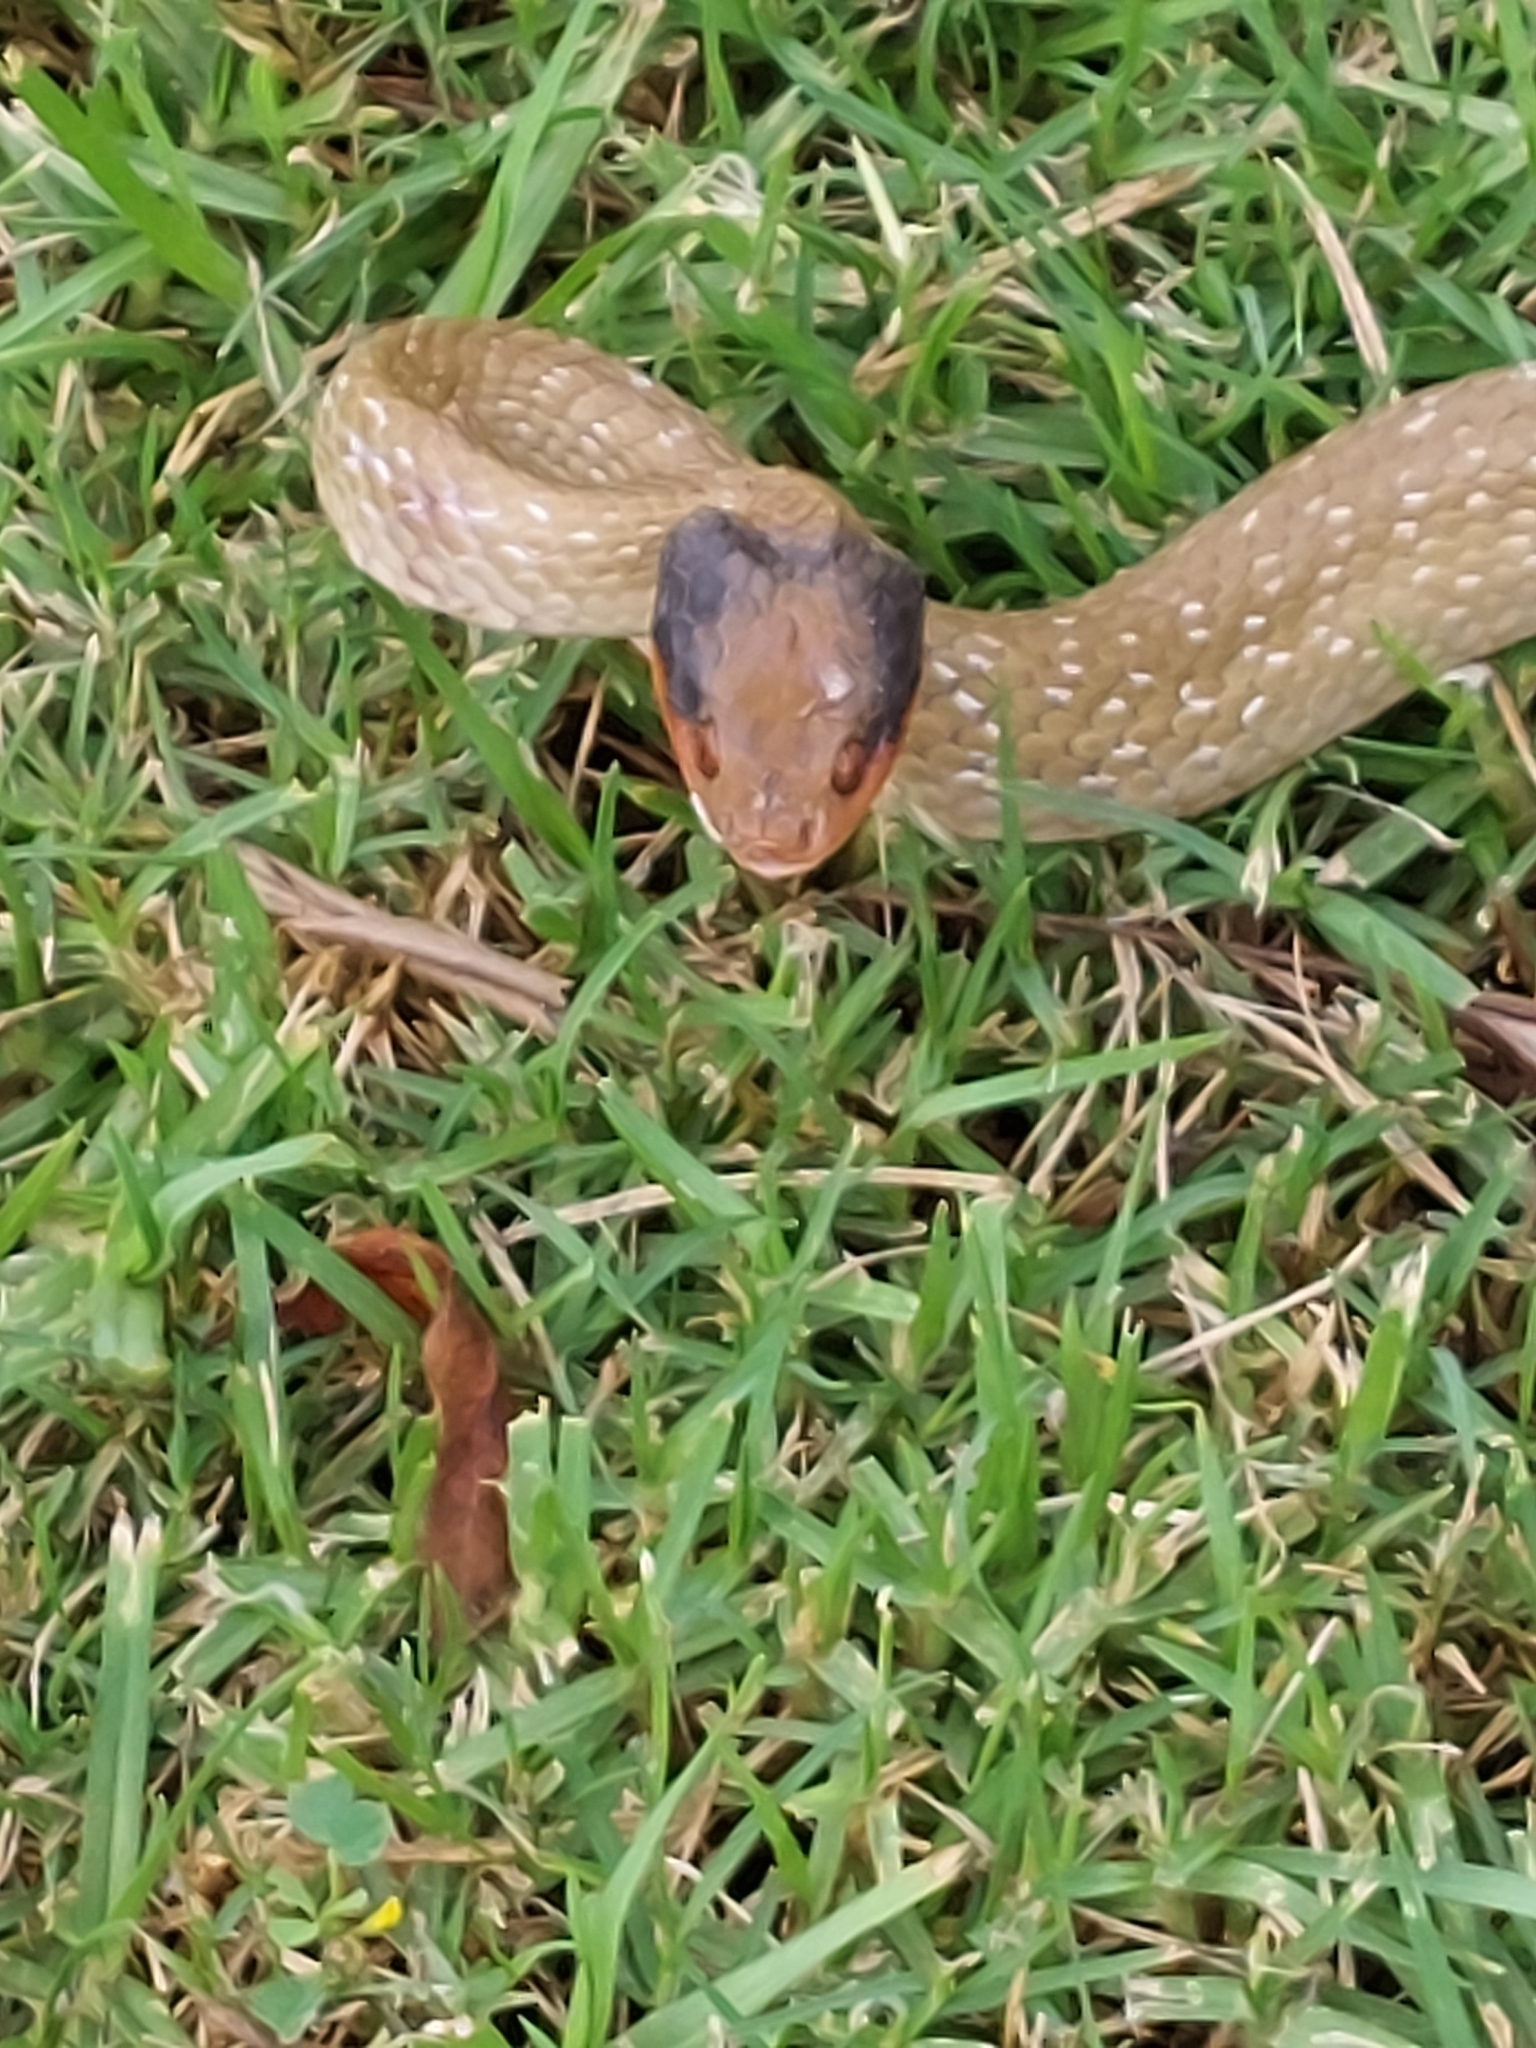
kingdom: Animalia
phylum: Chordata
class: Squamata
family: Colubridae
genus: Crotaphopeltis
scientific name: Crotaphopeltis hotamboeia
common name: Red-lipped snake
